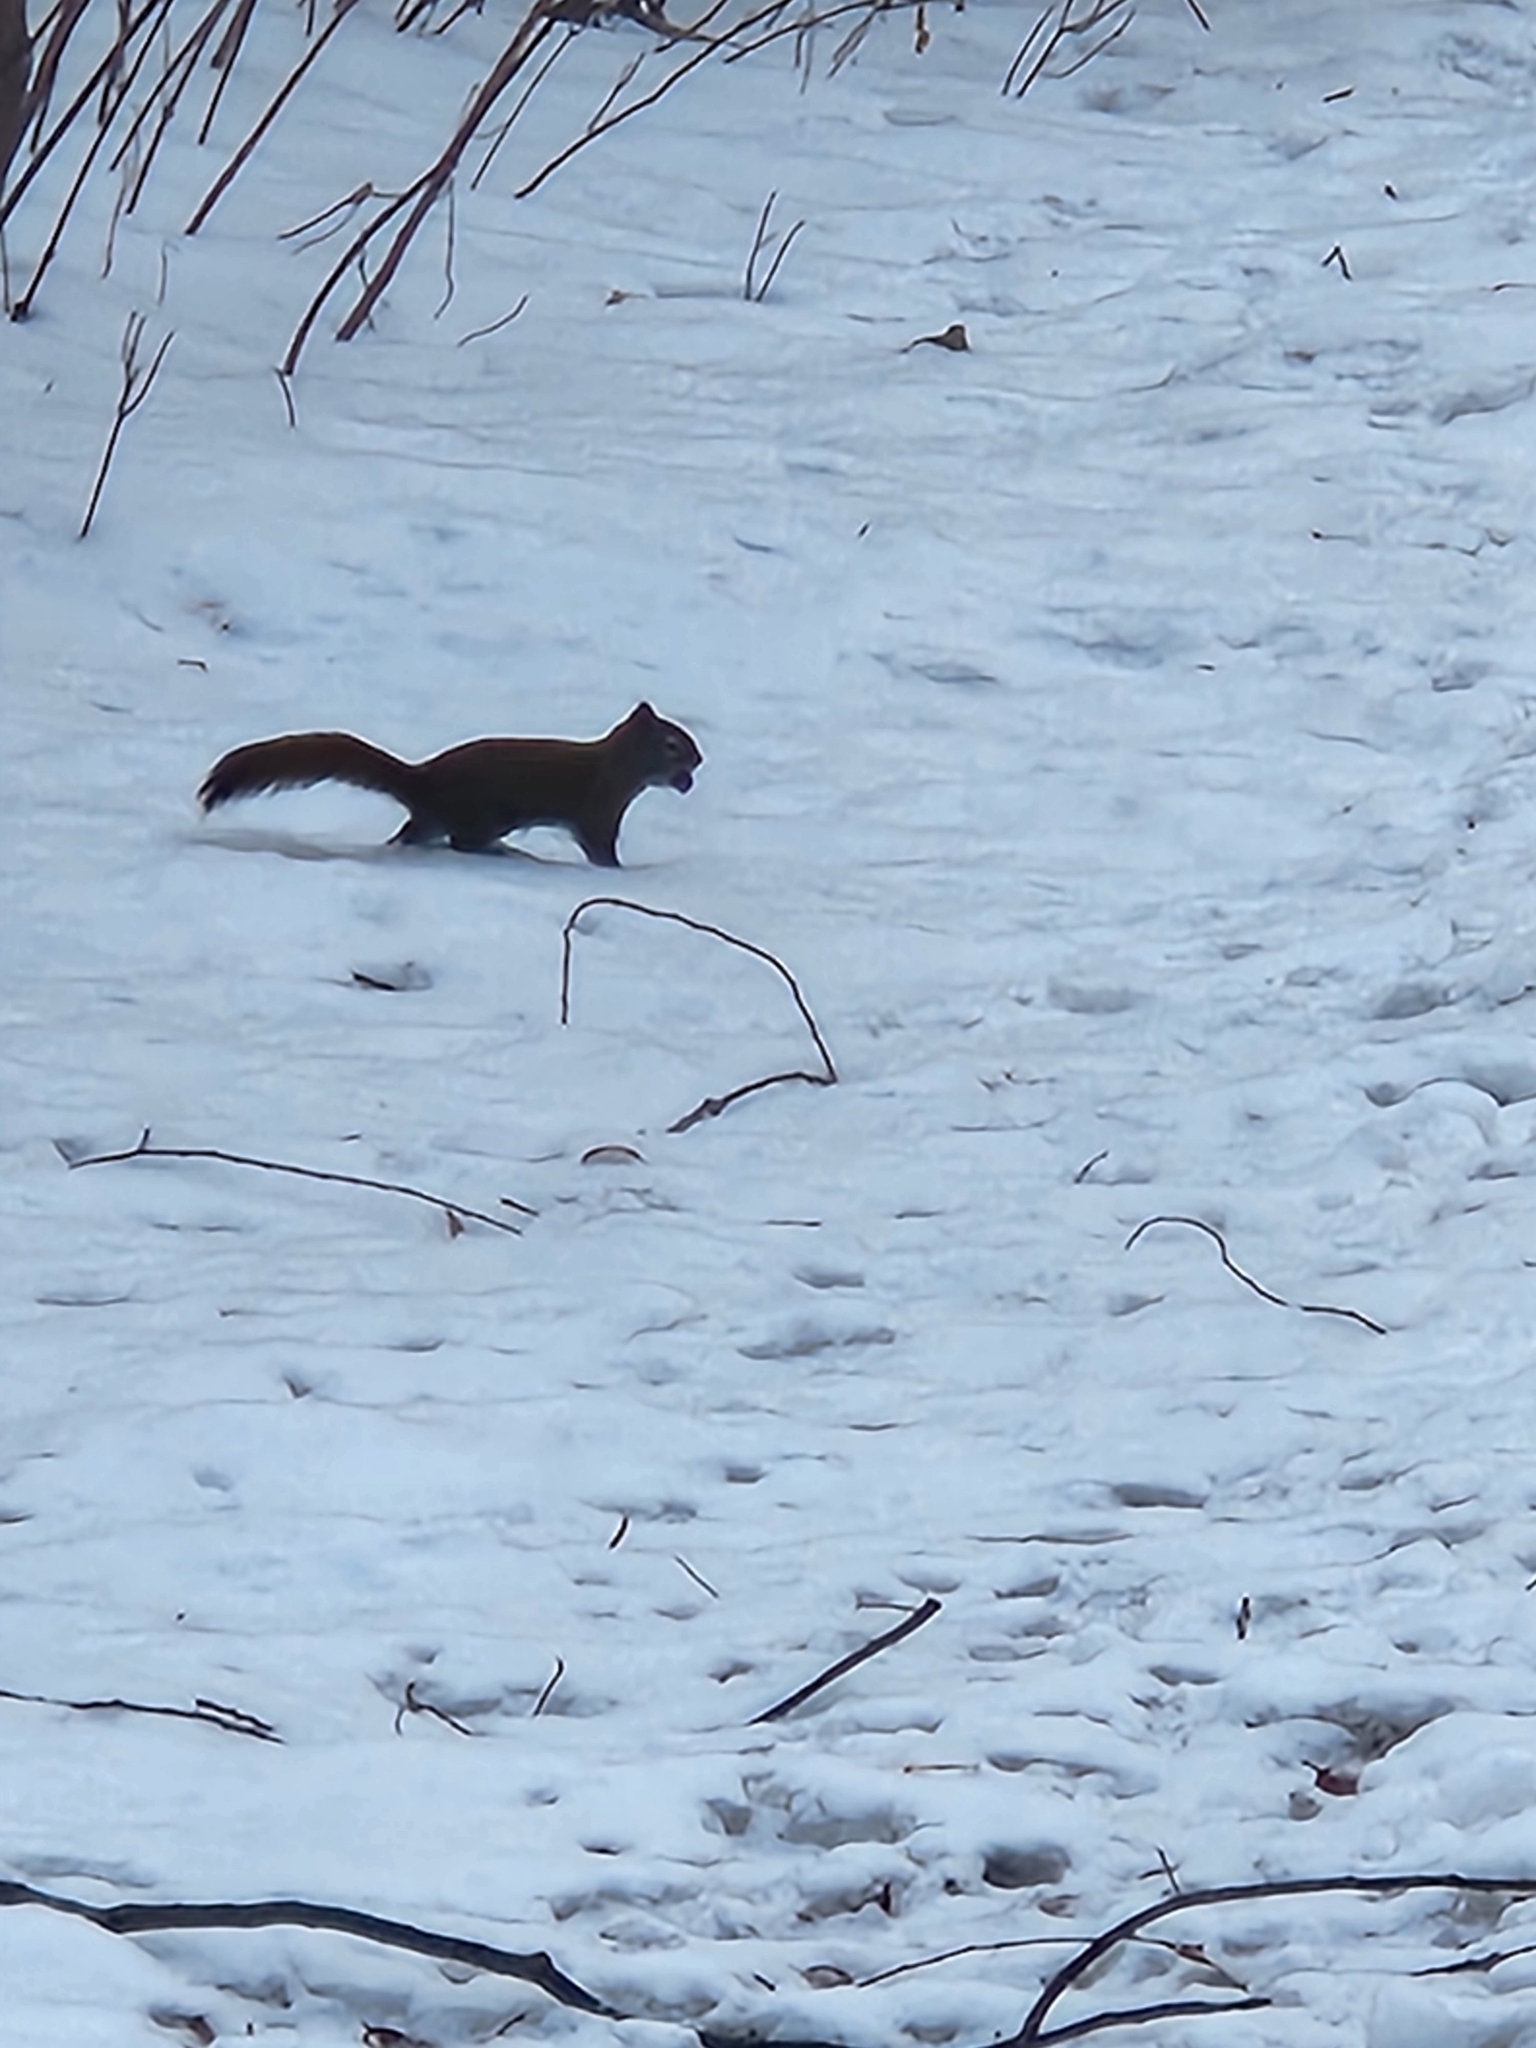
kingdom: Animalia
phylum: Chordata
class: Mammalia
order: Rodentia
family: Sciuridae
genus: Tamiasciurus
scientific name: Tamiasciurus hudsonicus
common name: Red squirrel
